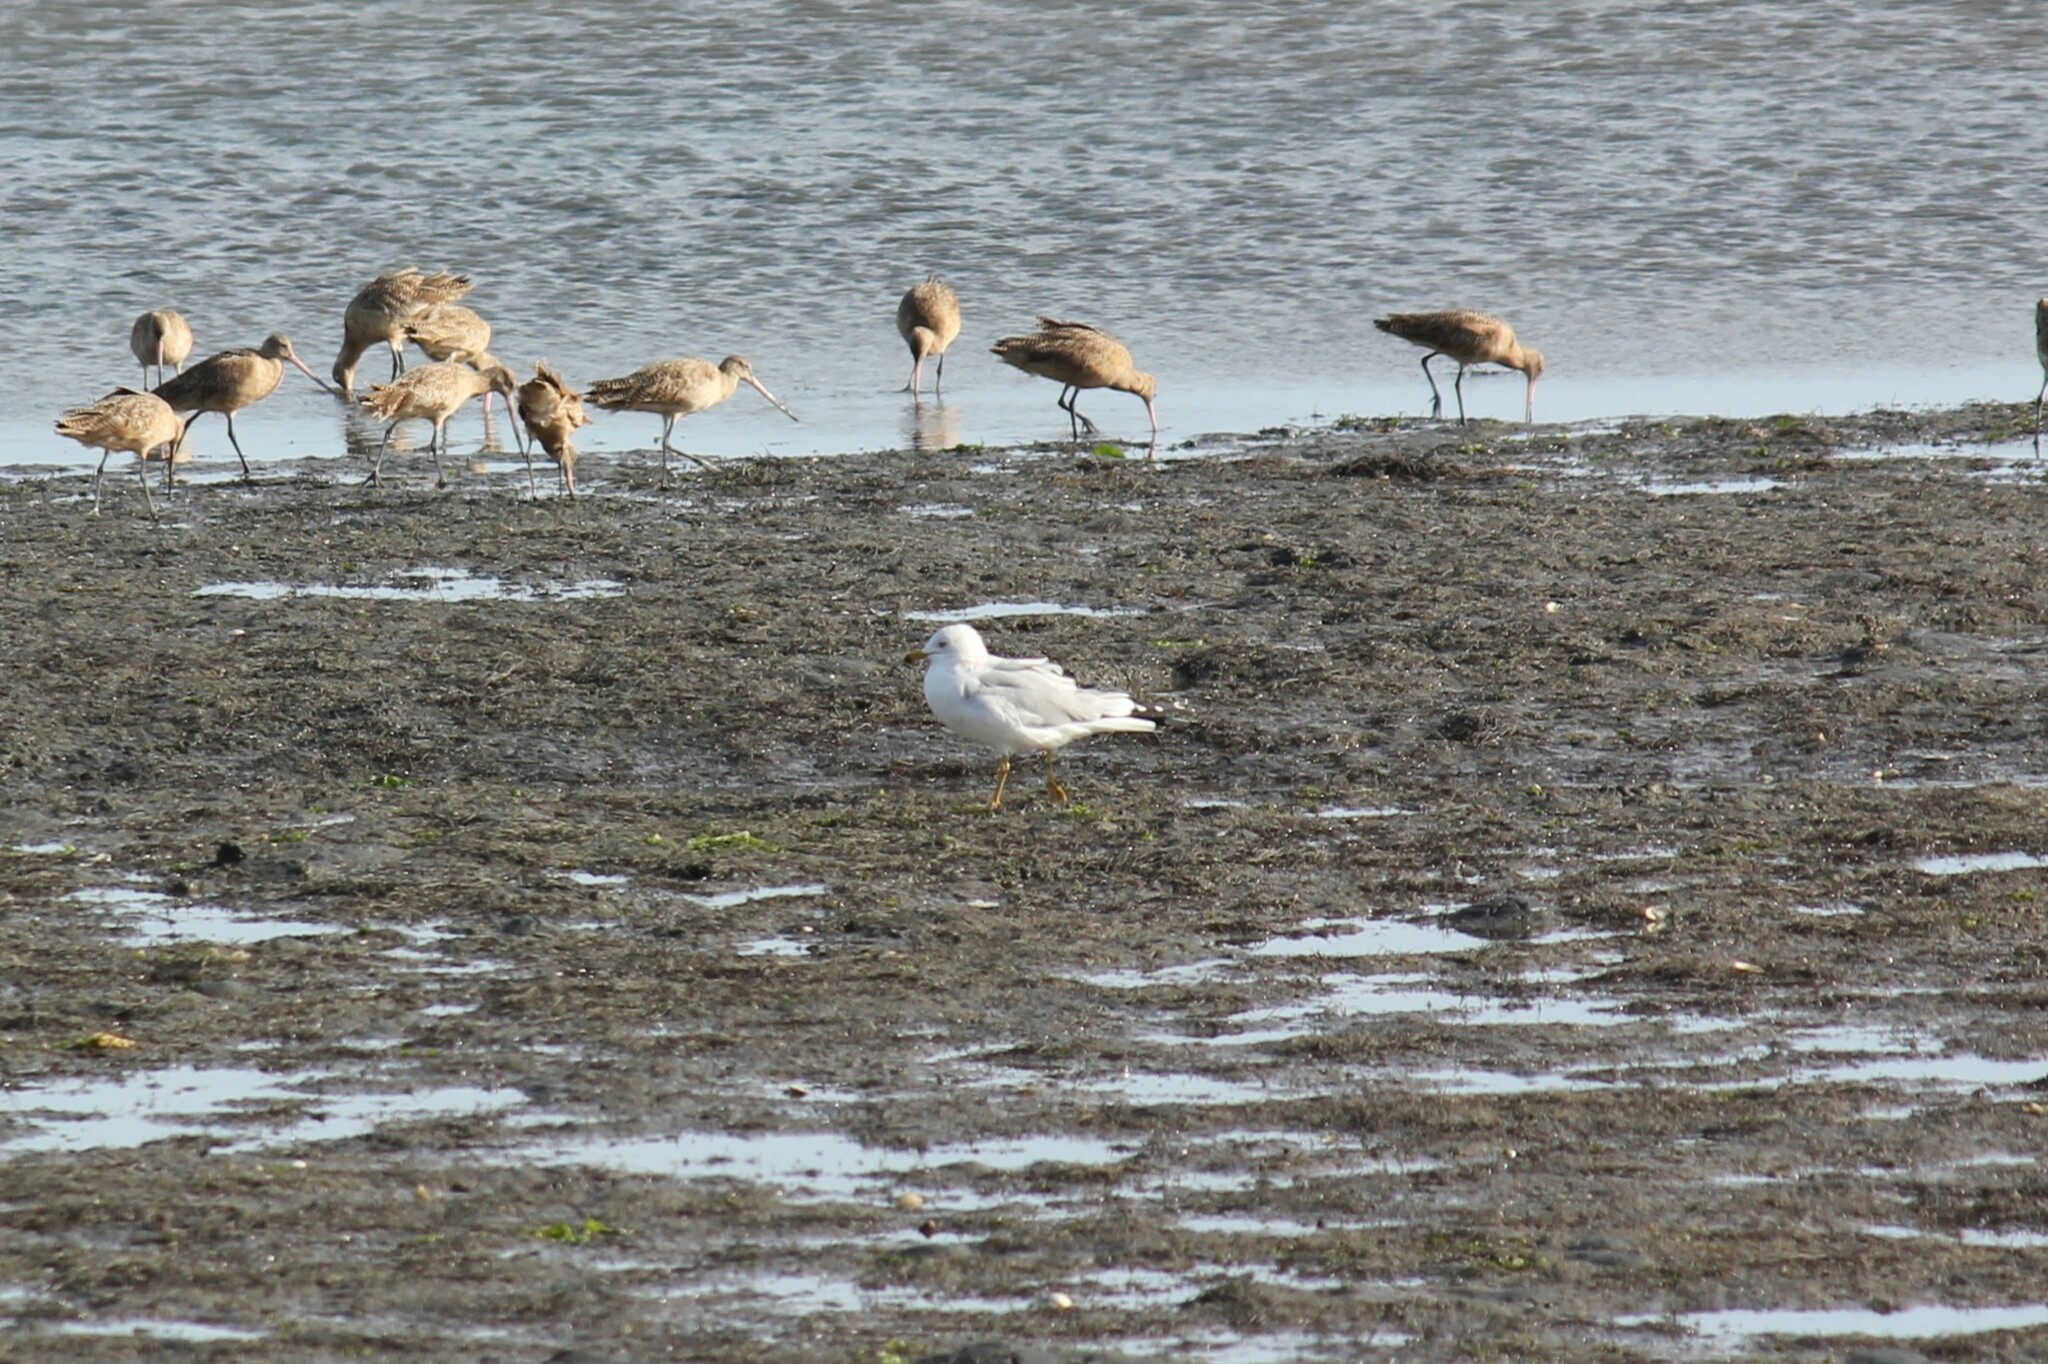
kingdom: Animalia
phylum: Chordata
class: Aves
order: Charadriiformes
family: Laridae
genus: Larus
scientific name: Larus delawarensis
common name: Ring-billed gull
